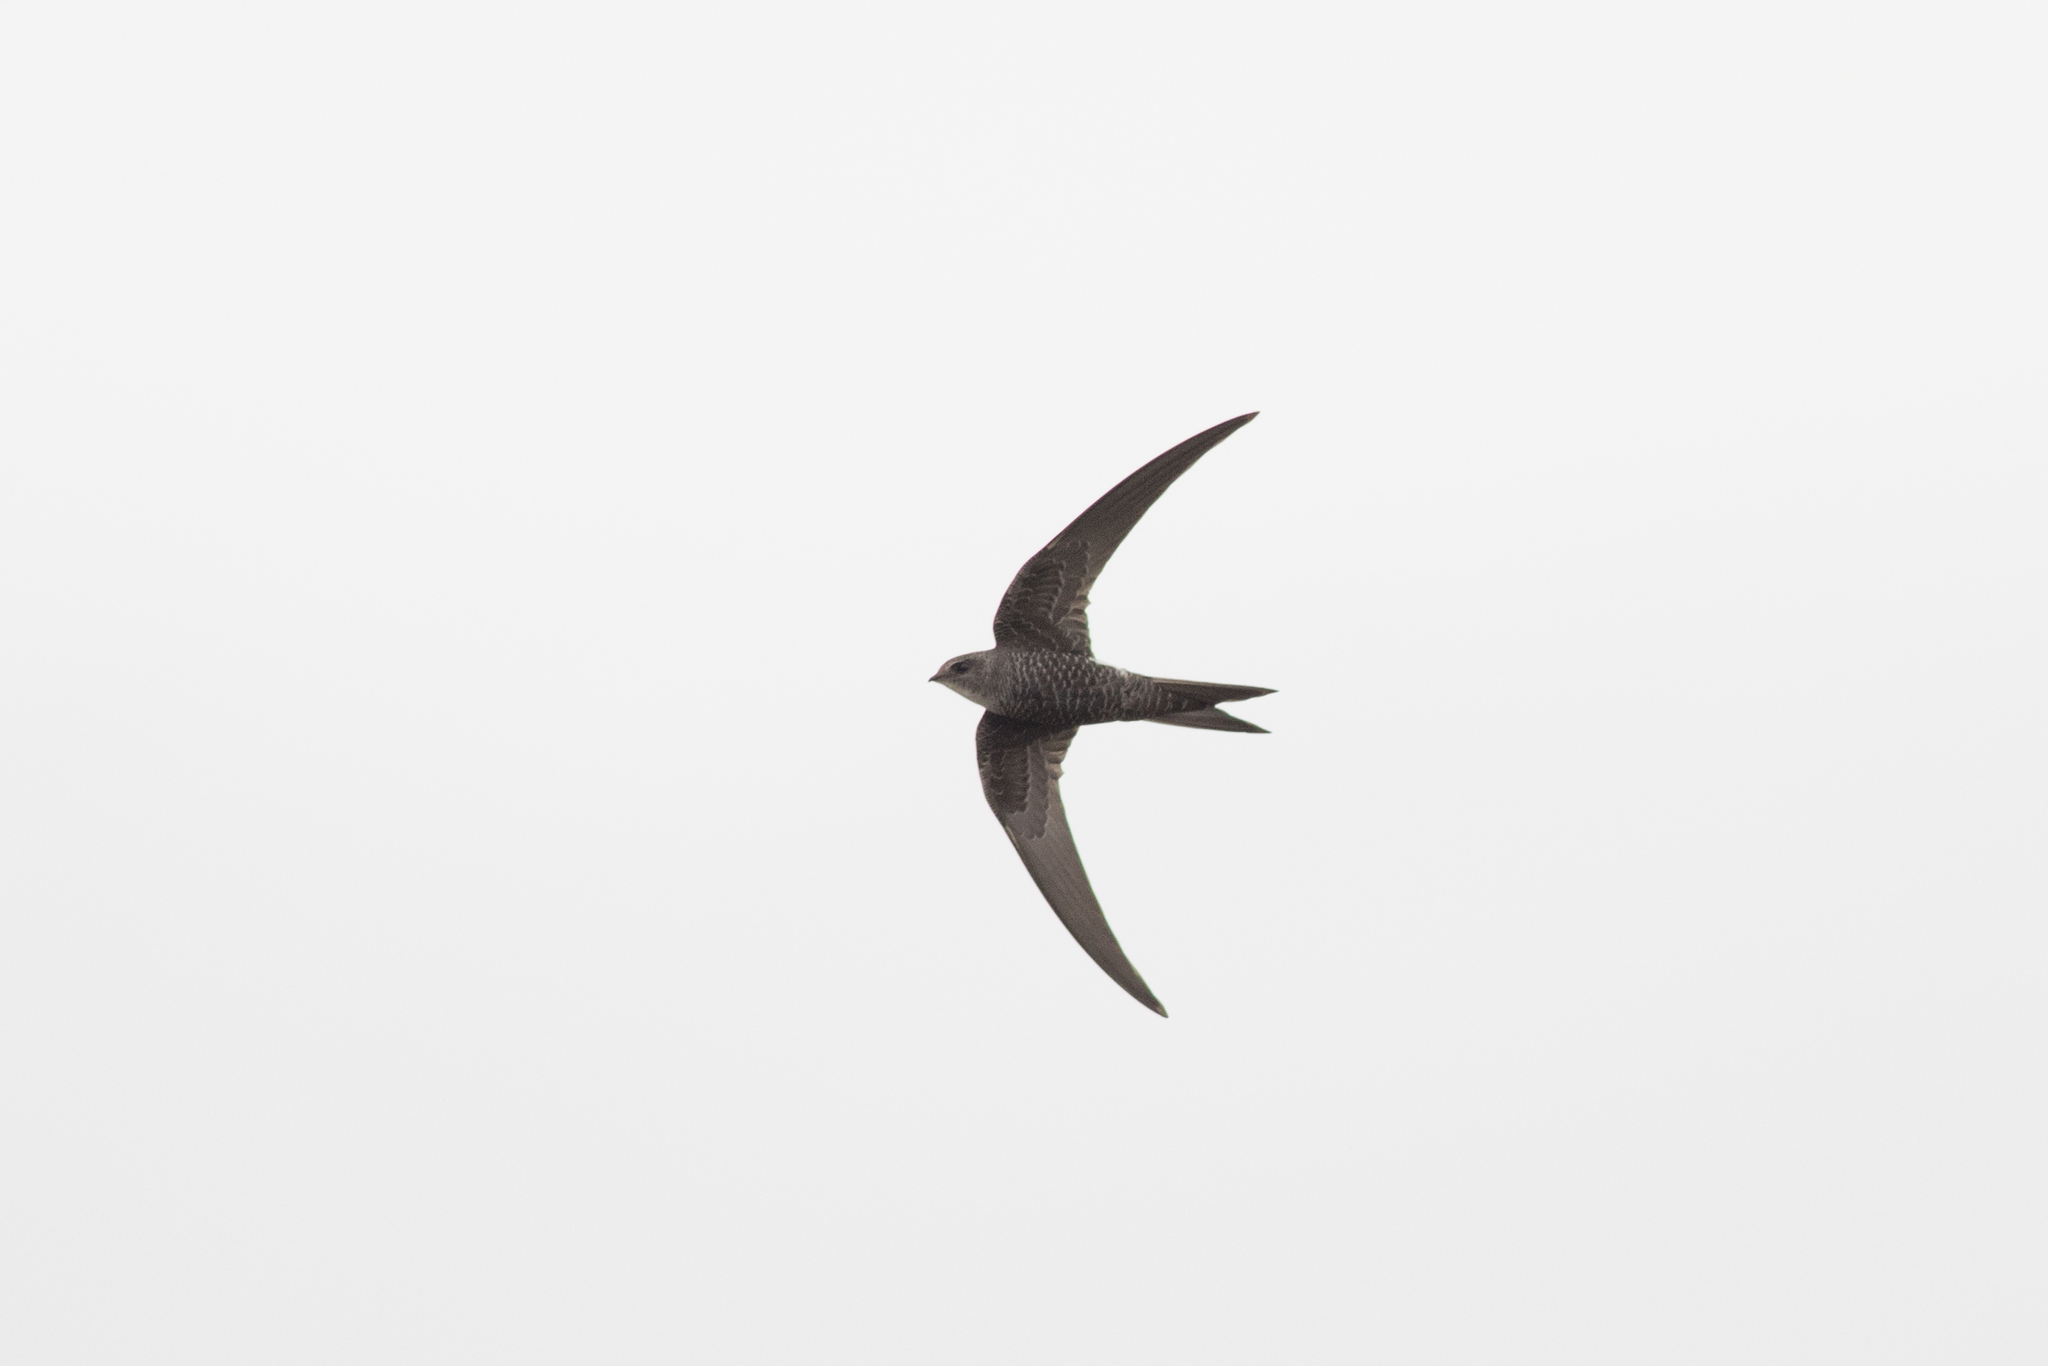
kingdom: Animalia
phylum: Chordata
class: Aves
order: Apodiformes
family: Apodidae
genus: Apus
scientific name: Apus pacificus
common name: Pacific swift
